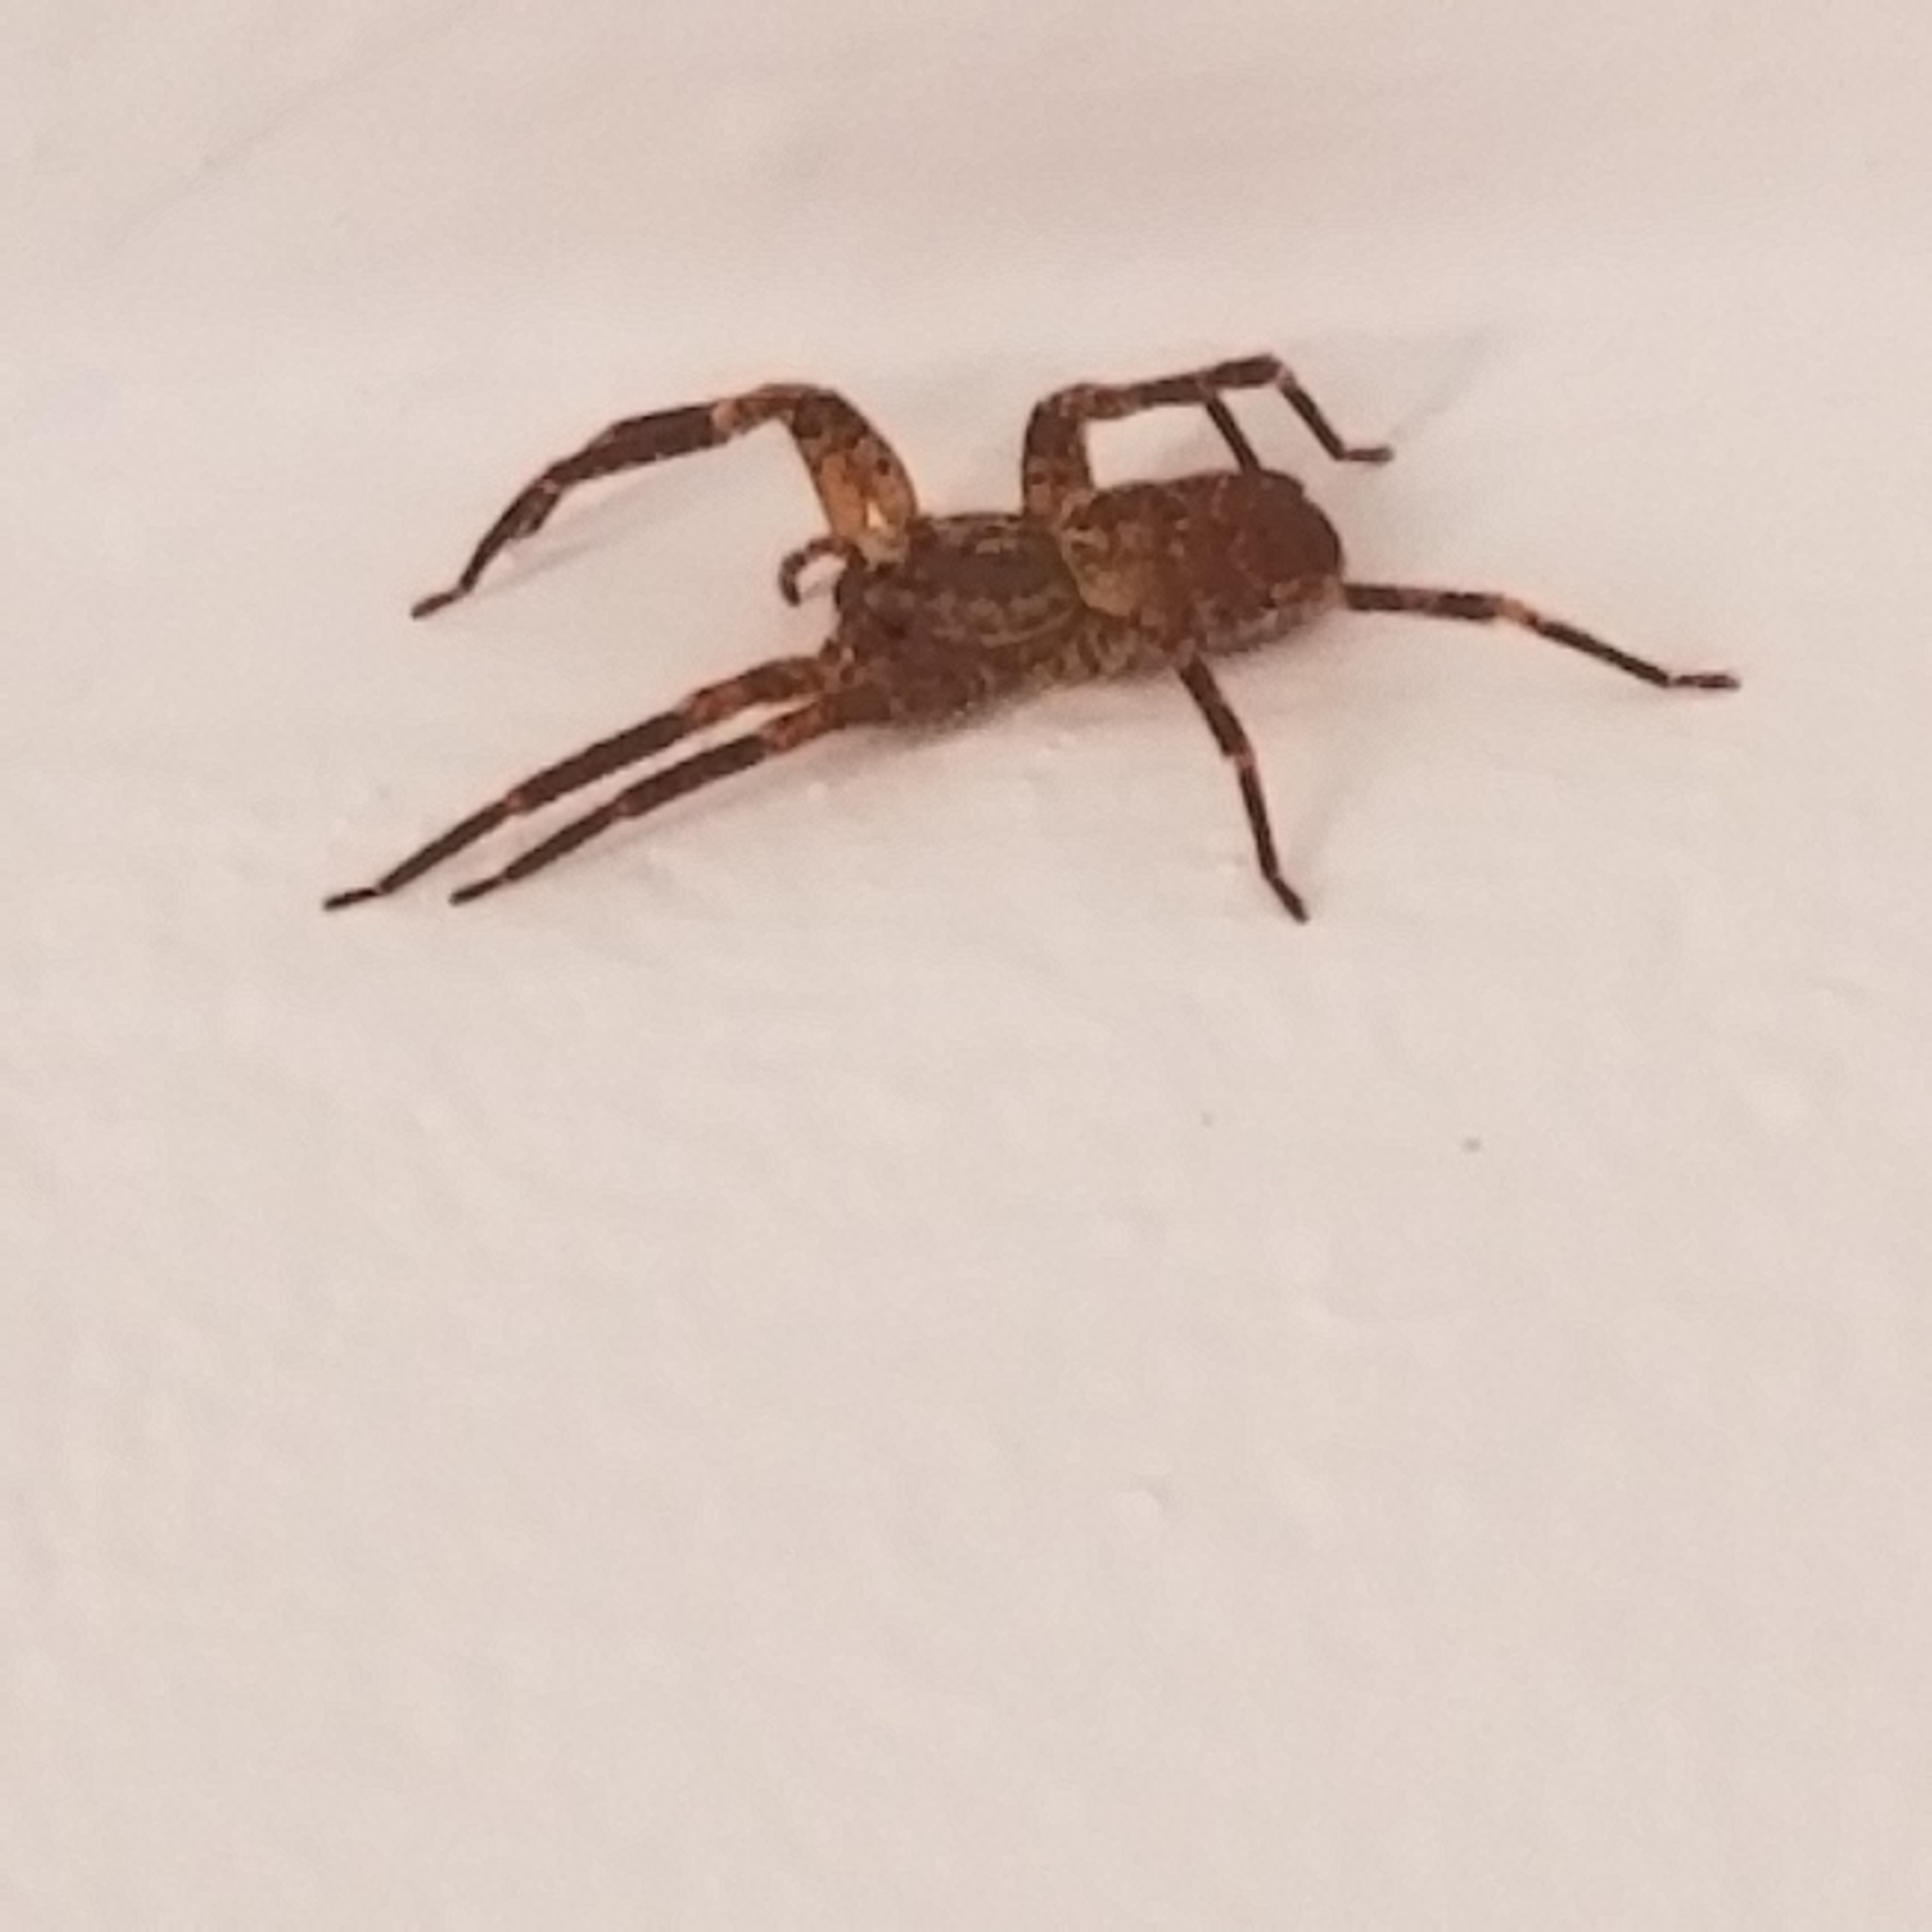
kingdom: Animalia
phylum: Arthropoda
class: Arachnida
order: Araneae
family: Zoropsidae
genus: Zoropsis
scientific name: Zoropsis spinimana
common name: Zoropsid spider
